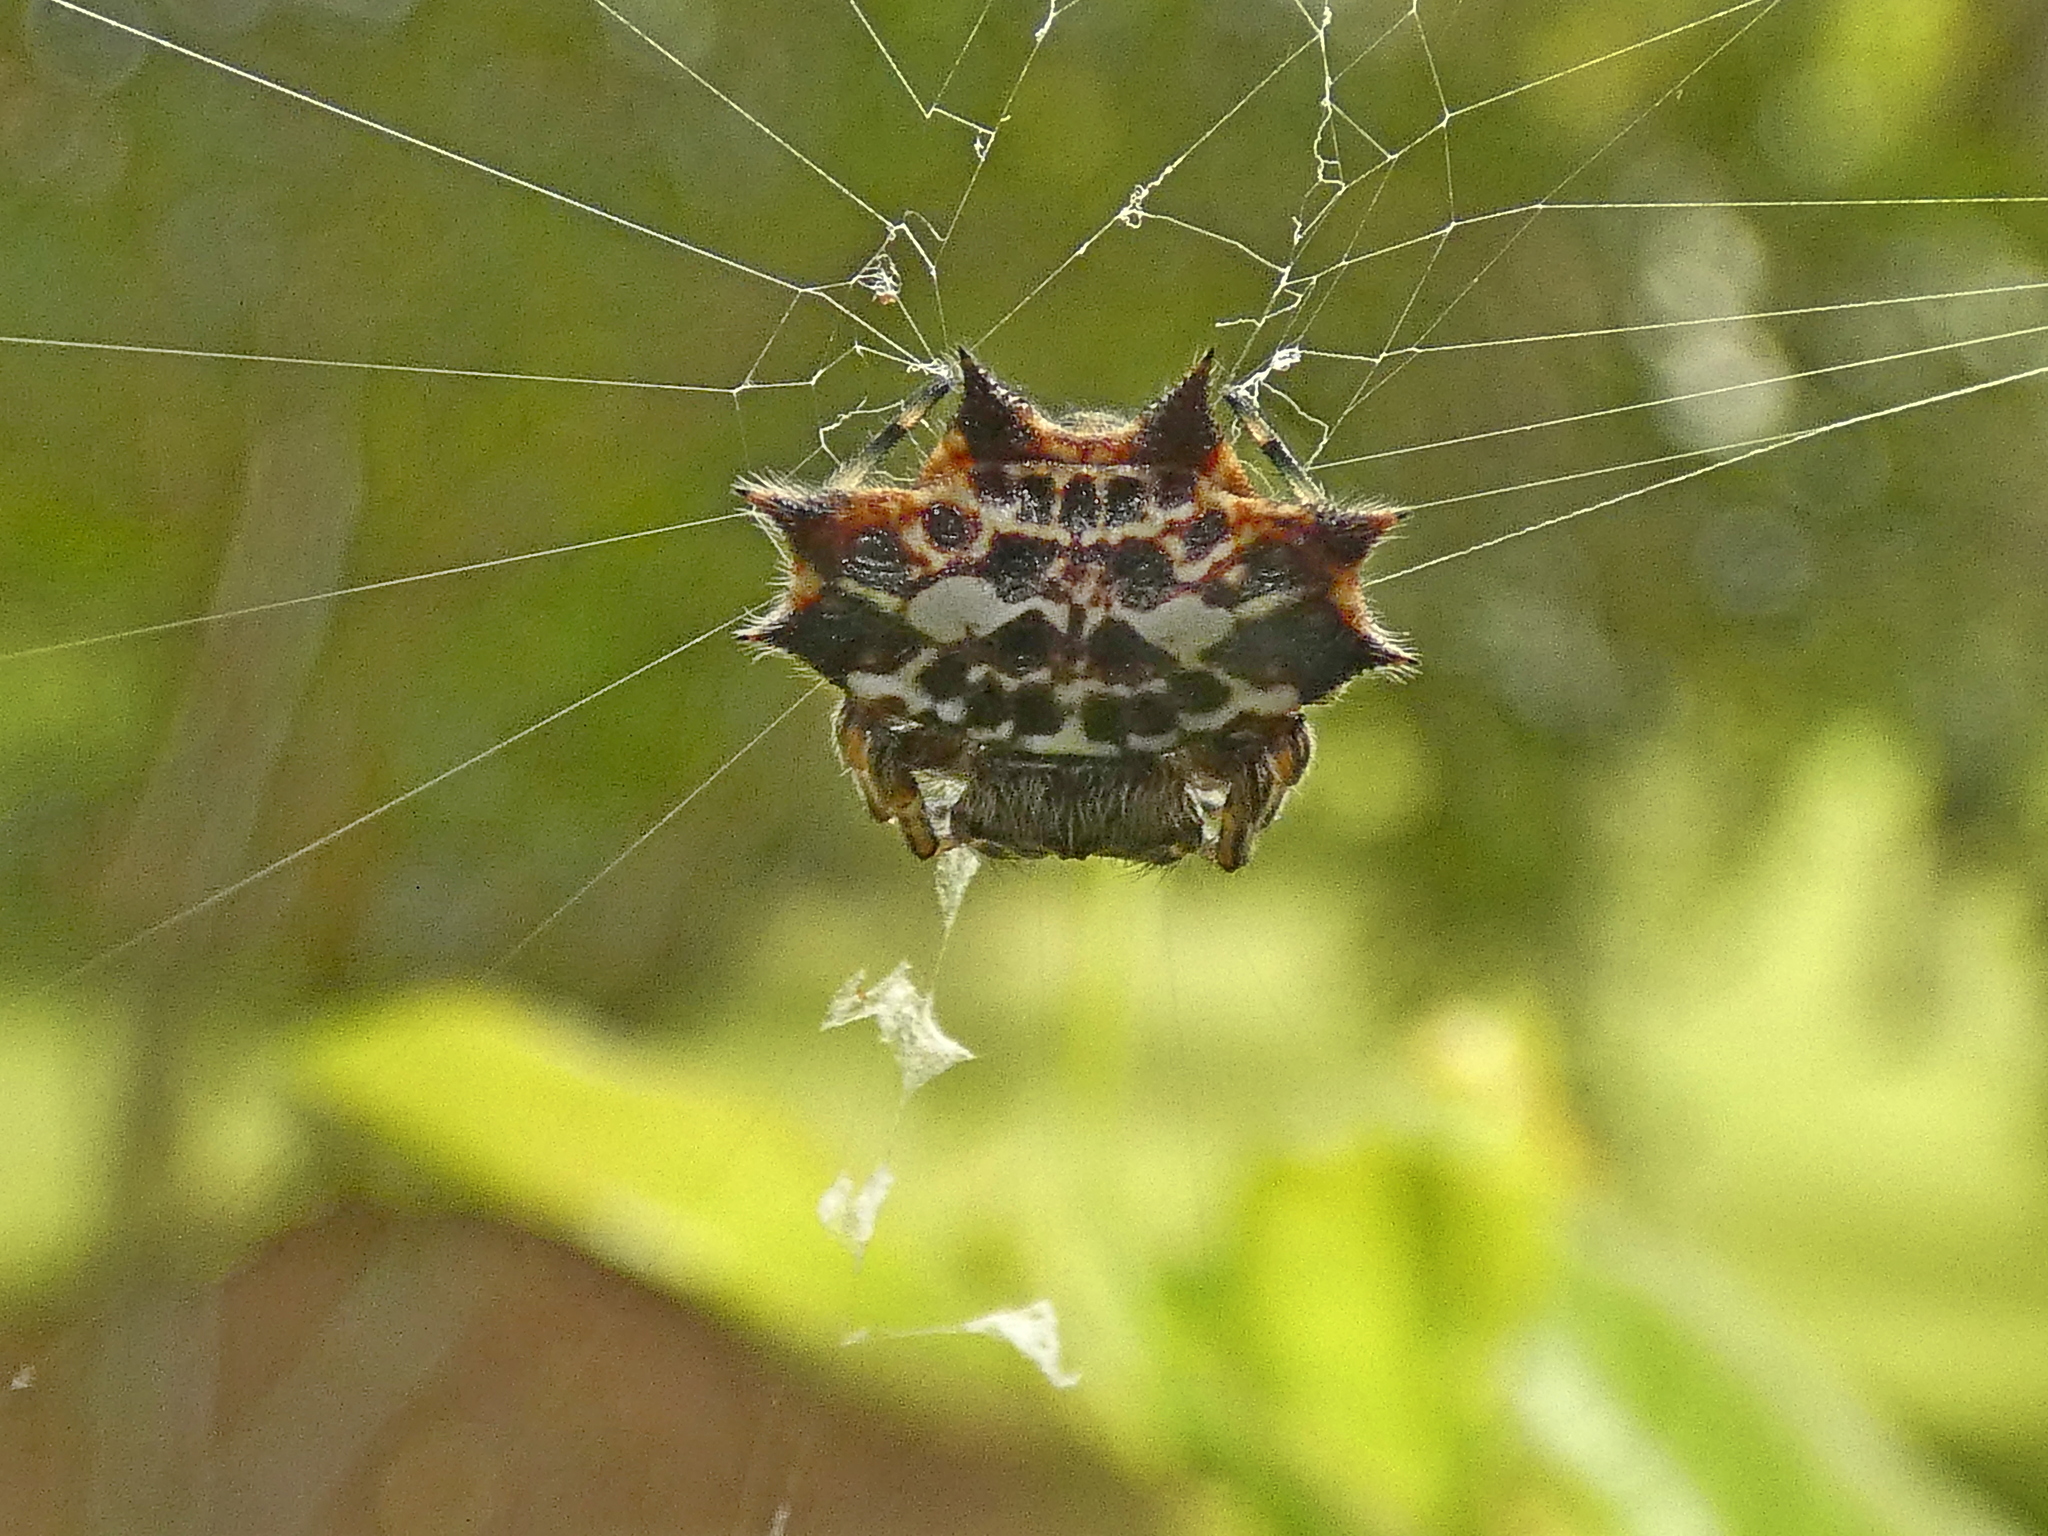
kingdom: Animalia
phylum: Arthropoda
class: Arachnida
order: Araneae
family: Araneidae
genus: Gasteracantha
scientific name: Gasteracantha cancriformis
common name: Orb weavers
